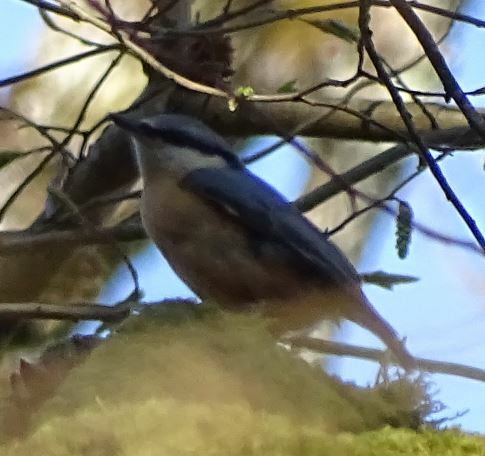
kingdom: Animalia
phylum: Chordata
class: Aves
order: Passeriformes
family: Sittidae
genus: Sitta
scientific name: Sitta europaea
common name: Eurasian nuthatch
